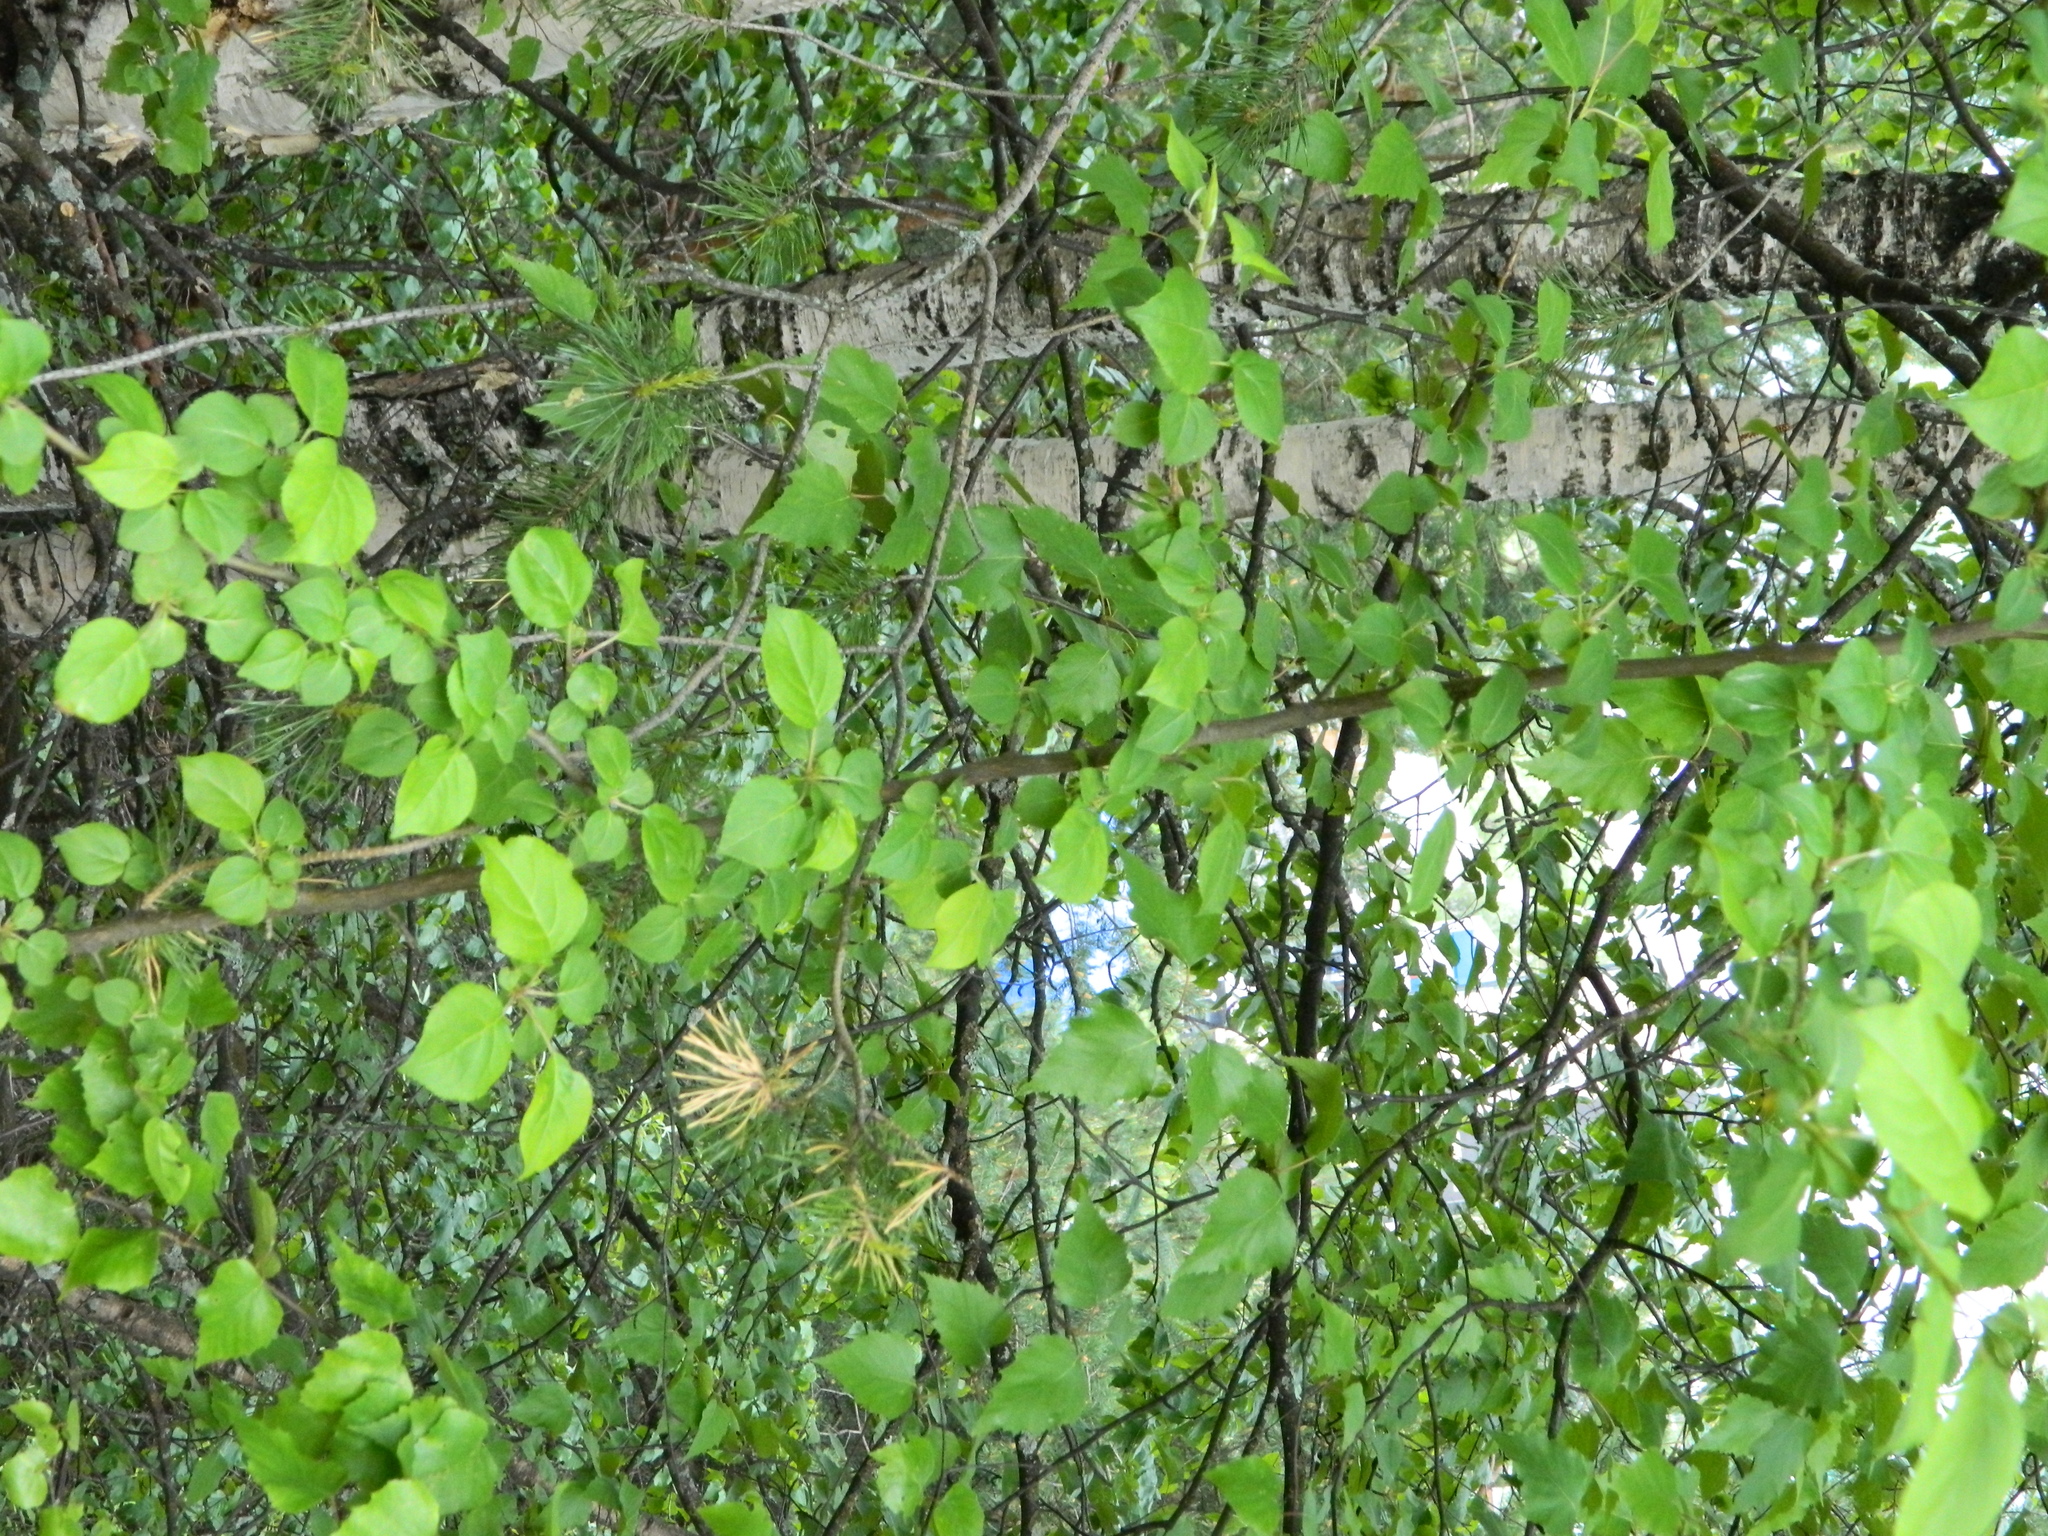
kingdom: Plantae
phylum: Tracheophyta
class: Magnoliopsida
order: Rosales
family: Rosaceae
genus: Malus
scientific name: Malus baccata
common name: Siberian crab
